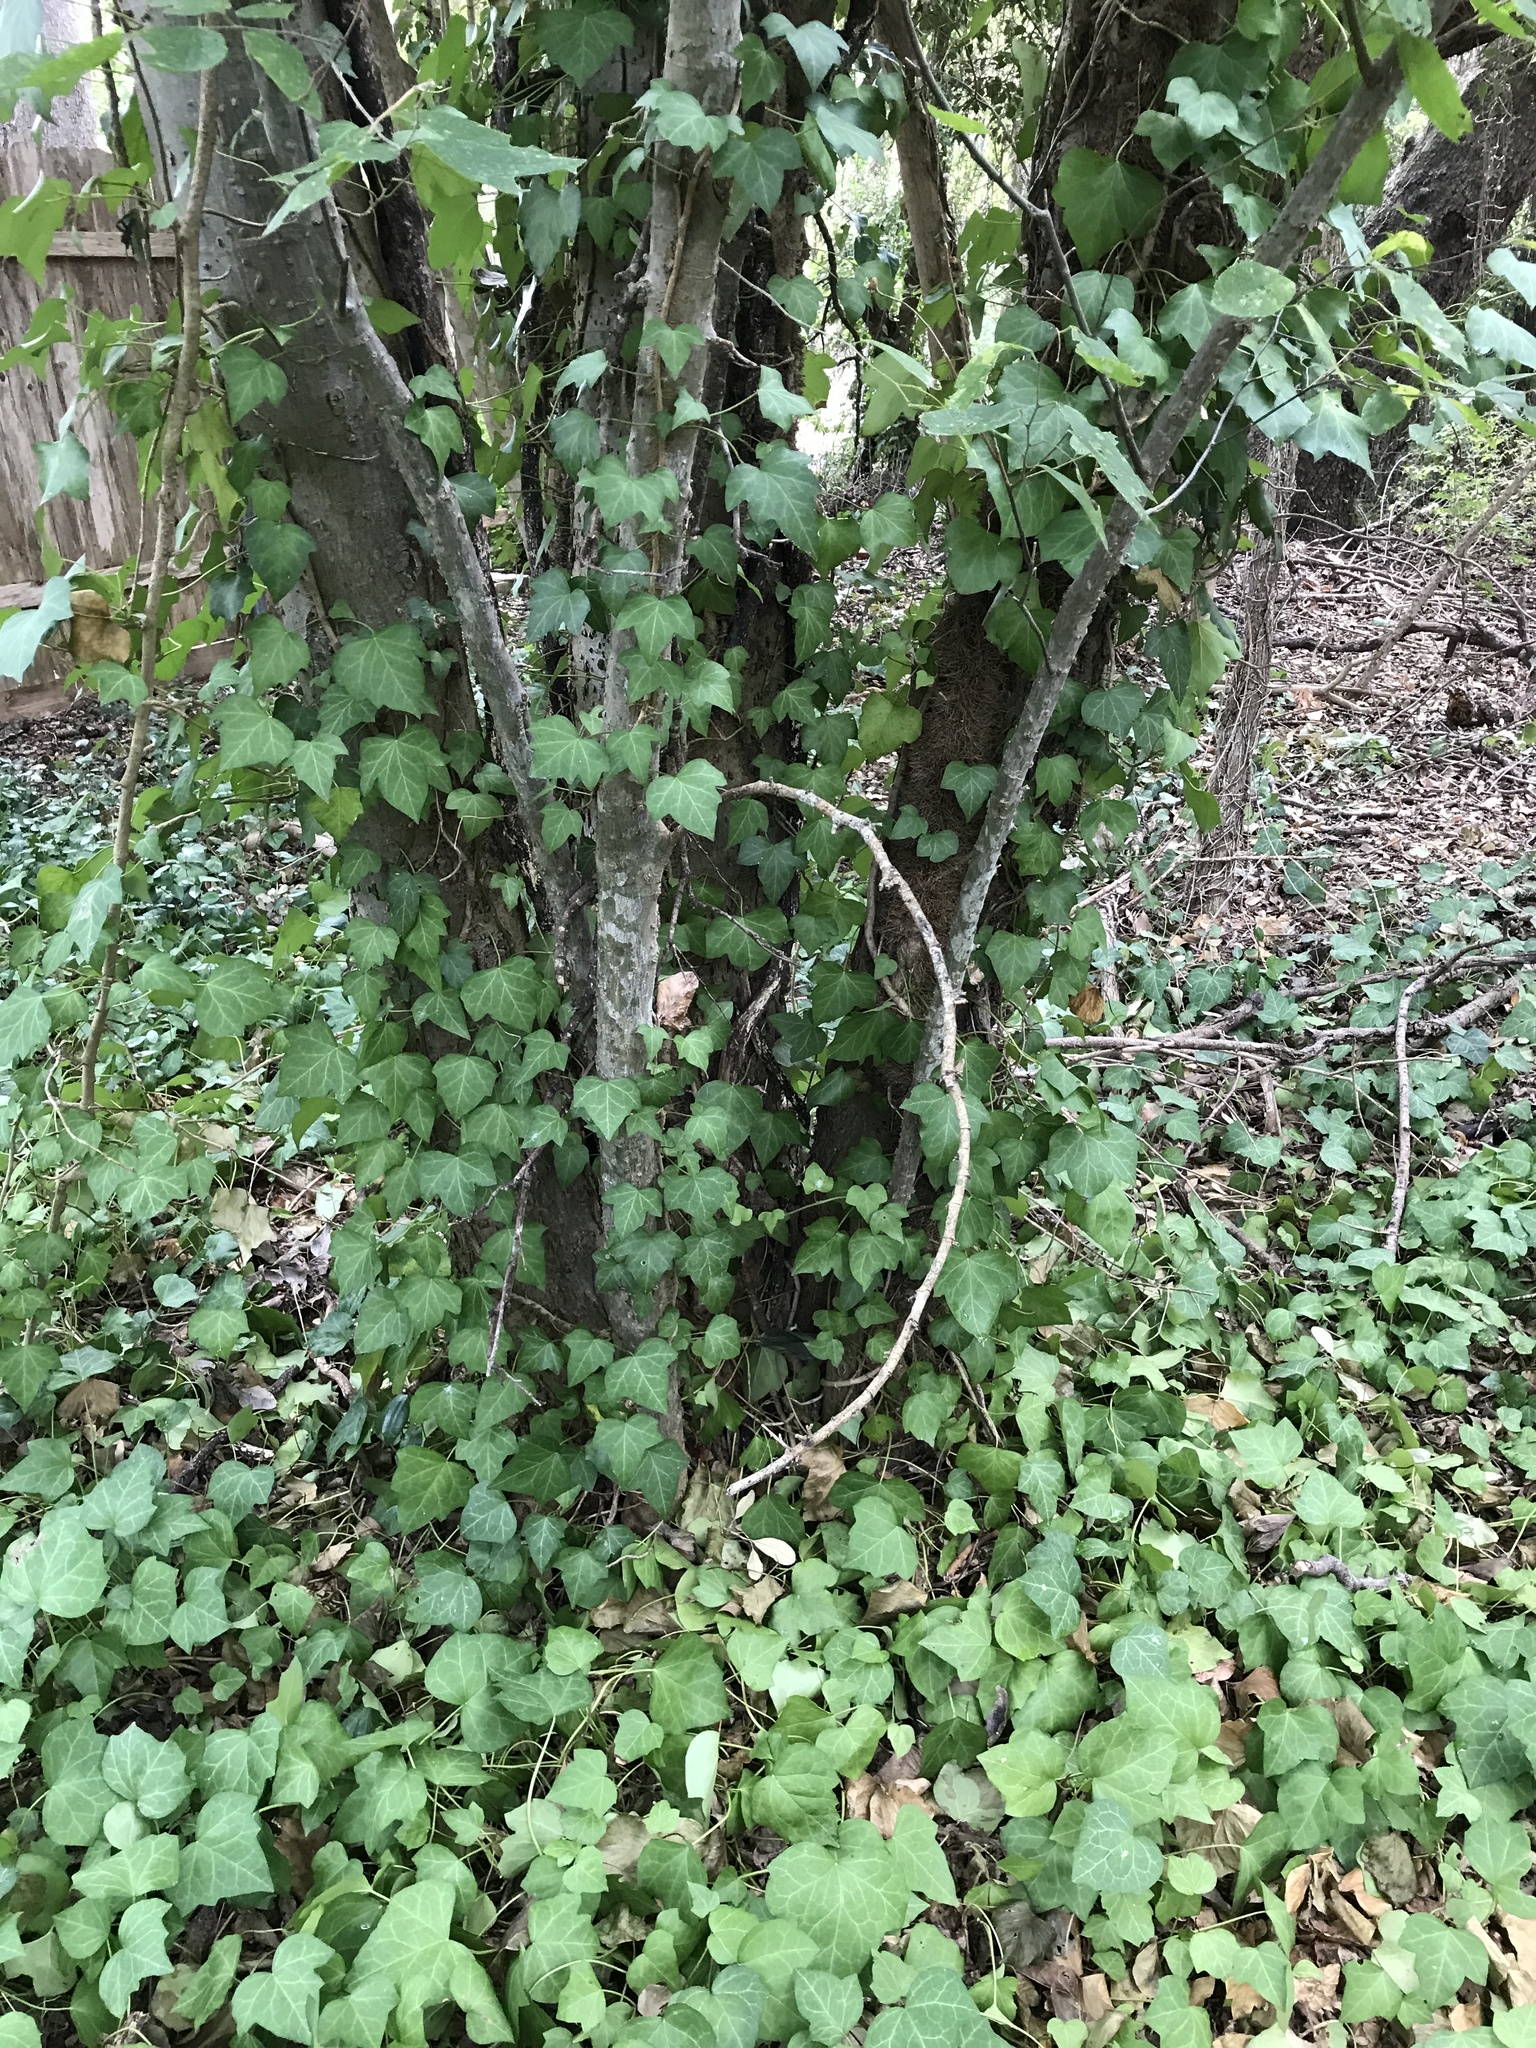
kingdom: Plantae
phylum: Tracheophyta
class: Magnoliopsida
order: Apiales
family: Araliaceae
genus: Hedera
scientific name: Hedera helix
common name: Ivy
